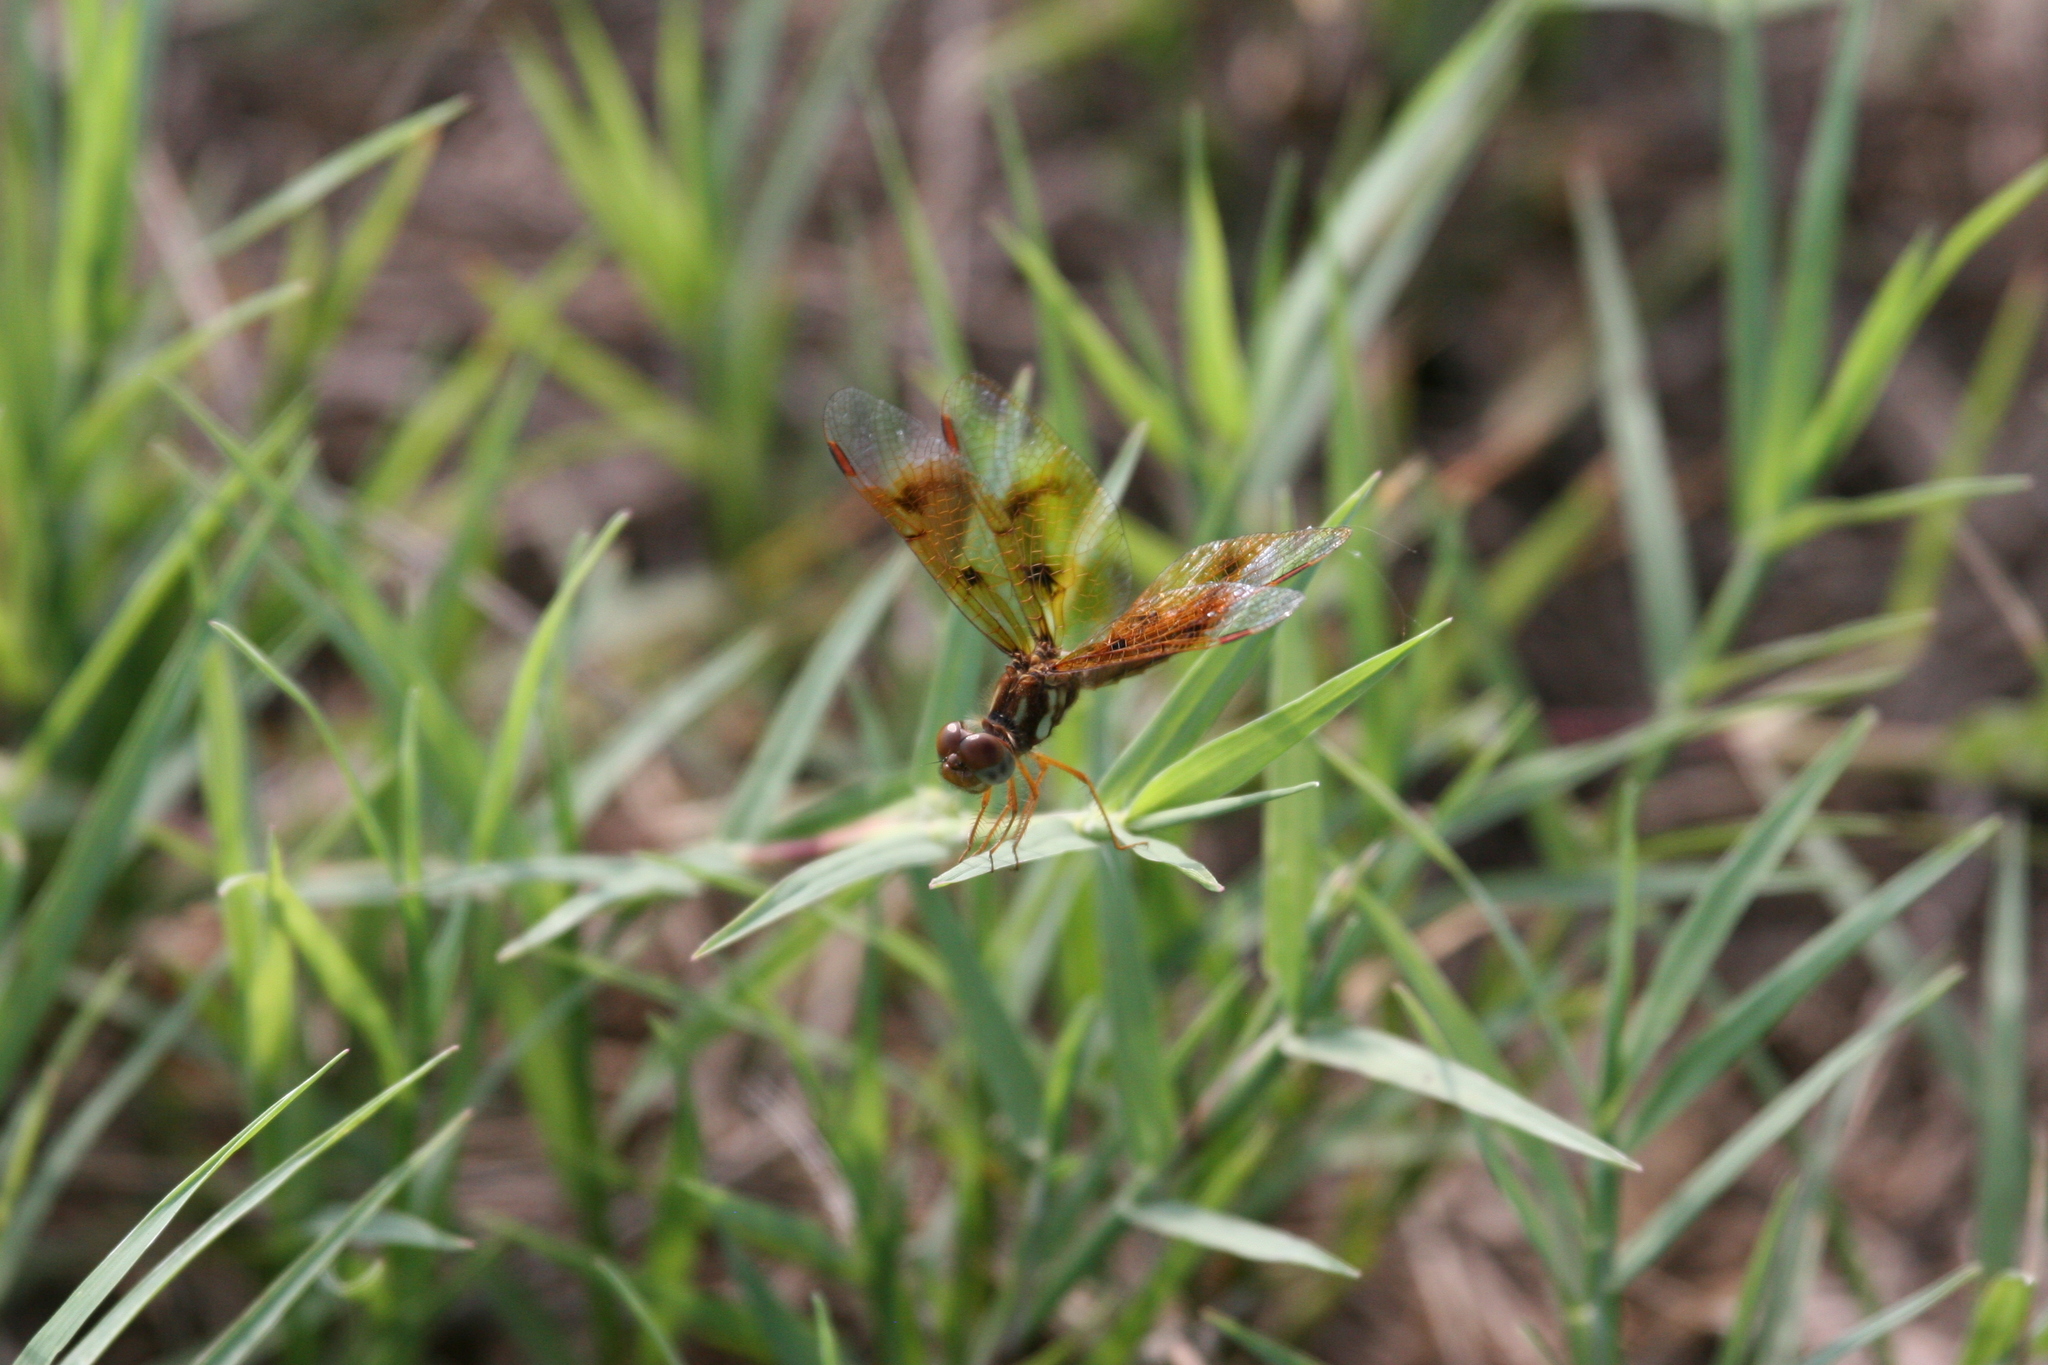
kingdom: Animalia
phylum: Arthropoda
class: Insecta
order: Odonata
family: Libellulidae
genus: Perithemis
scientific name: Perithemis tenera
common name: Eastern amberwing
